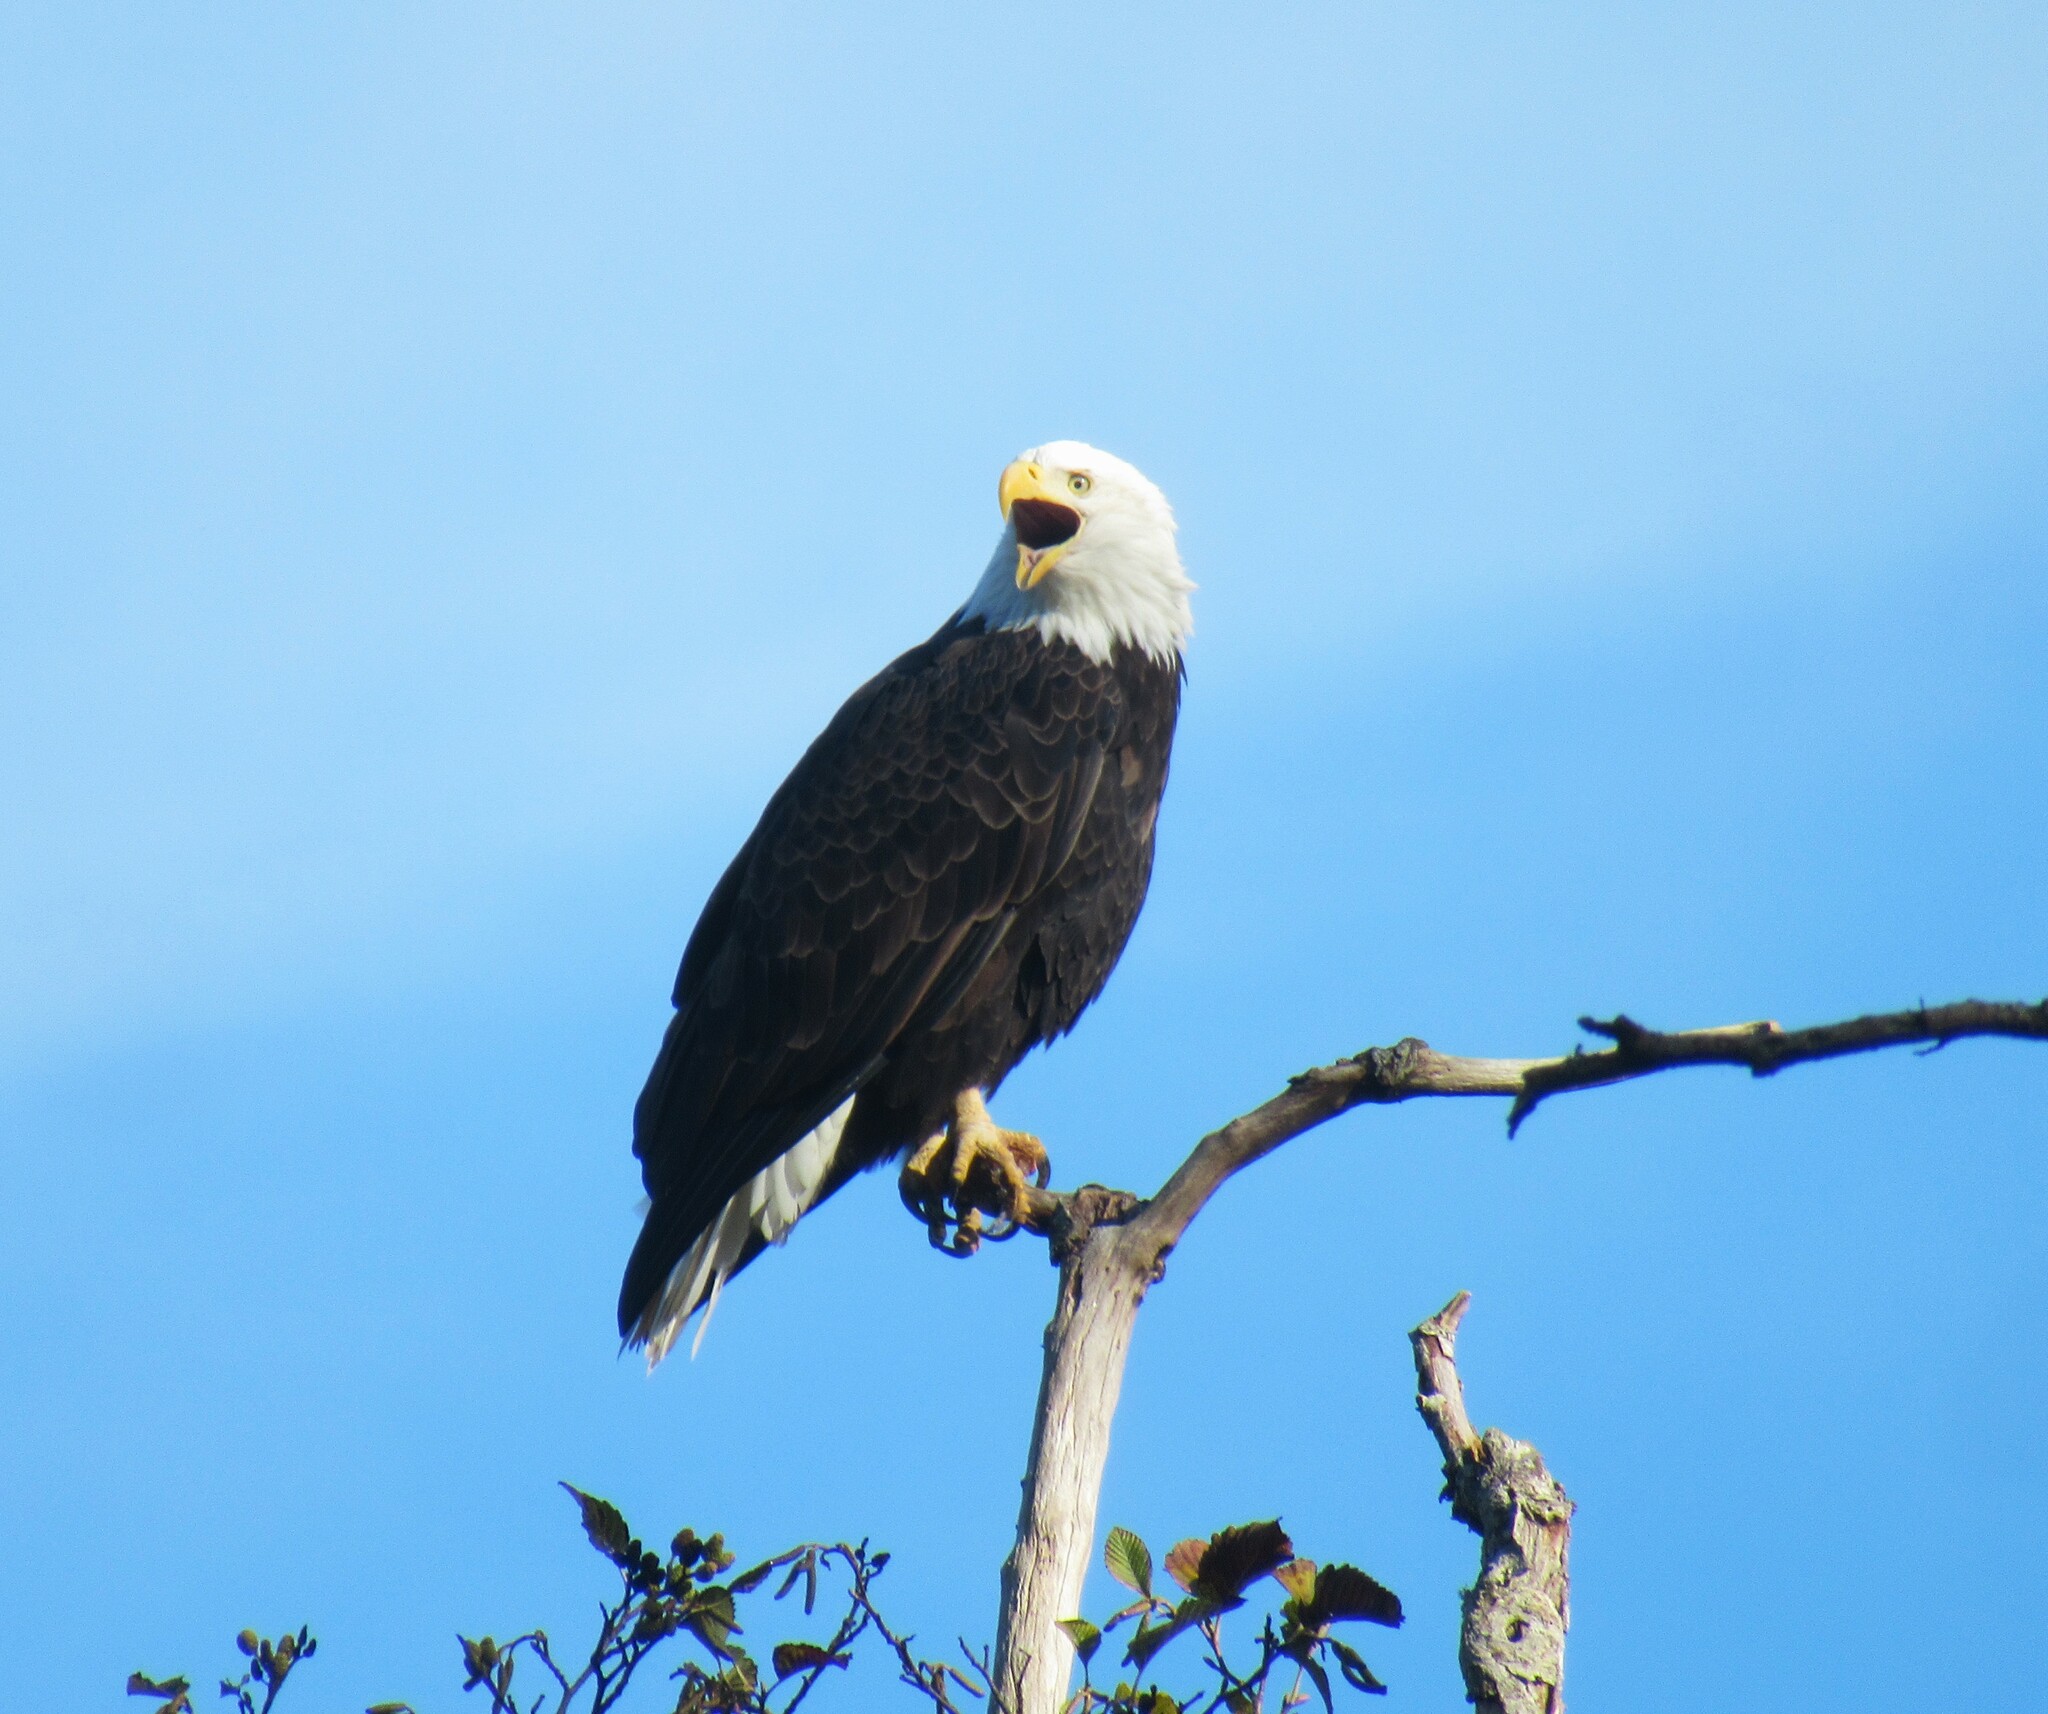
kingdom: Animalia
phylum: Chordata
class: Aves
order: Accipitriformes
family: Accipitridae
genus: Haliaeetus
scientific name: Haliaeetus leucocephalus
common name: Bald eagle
